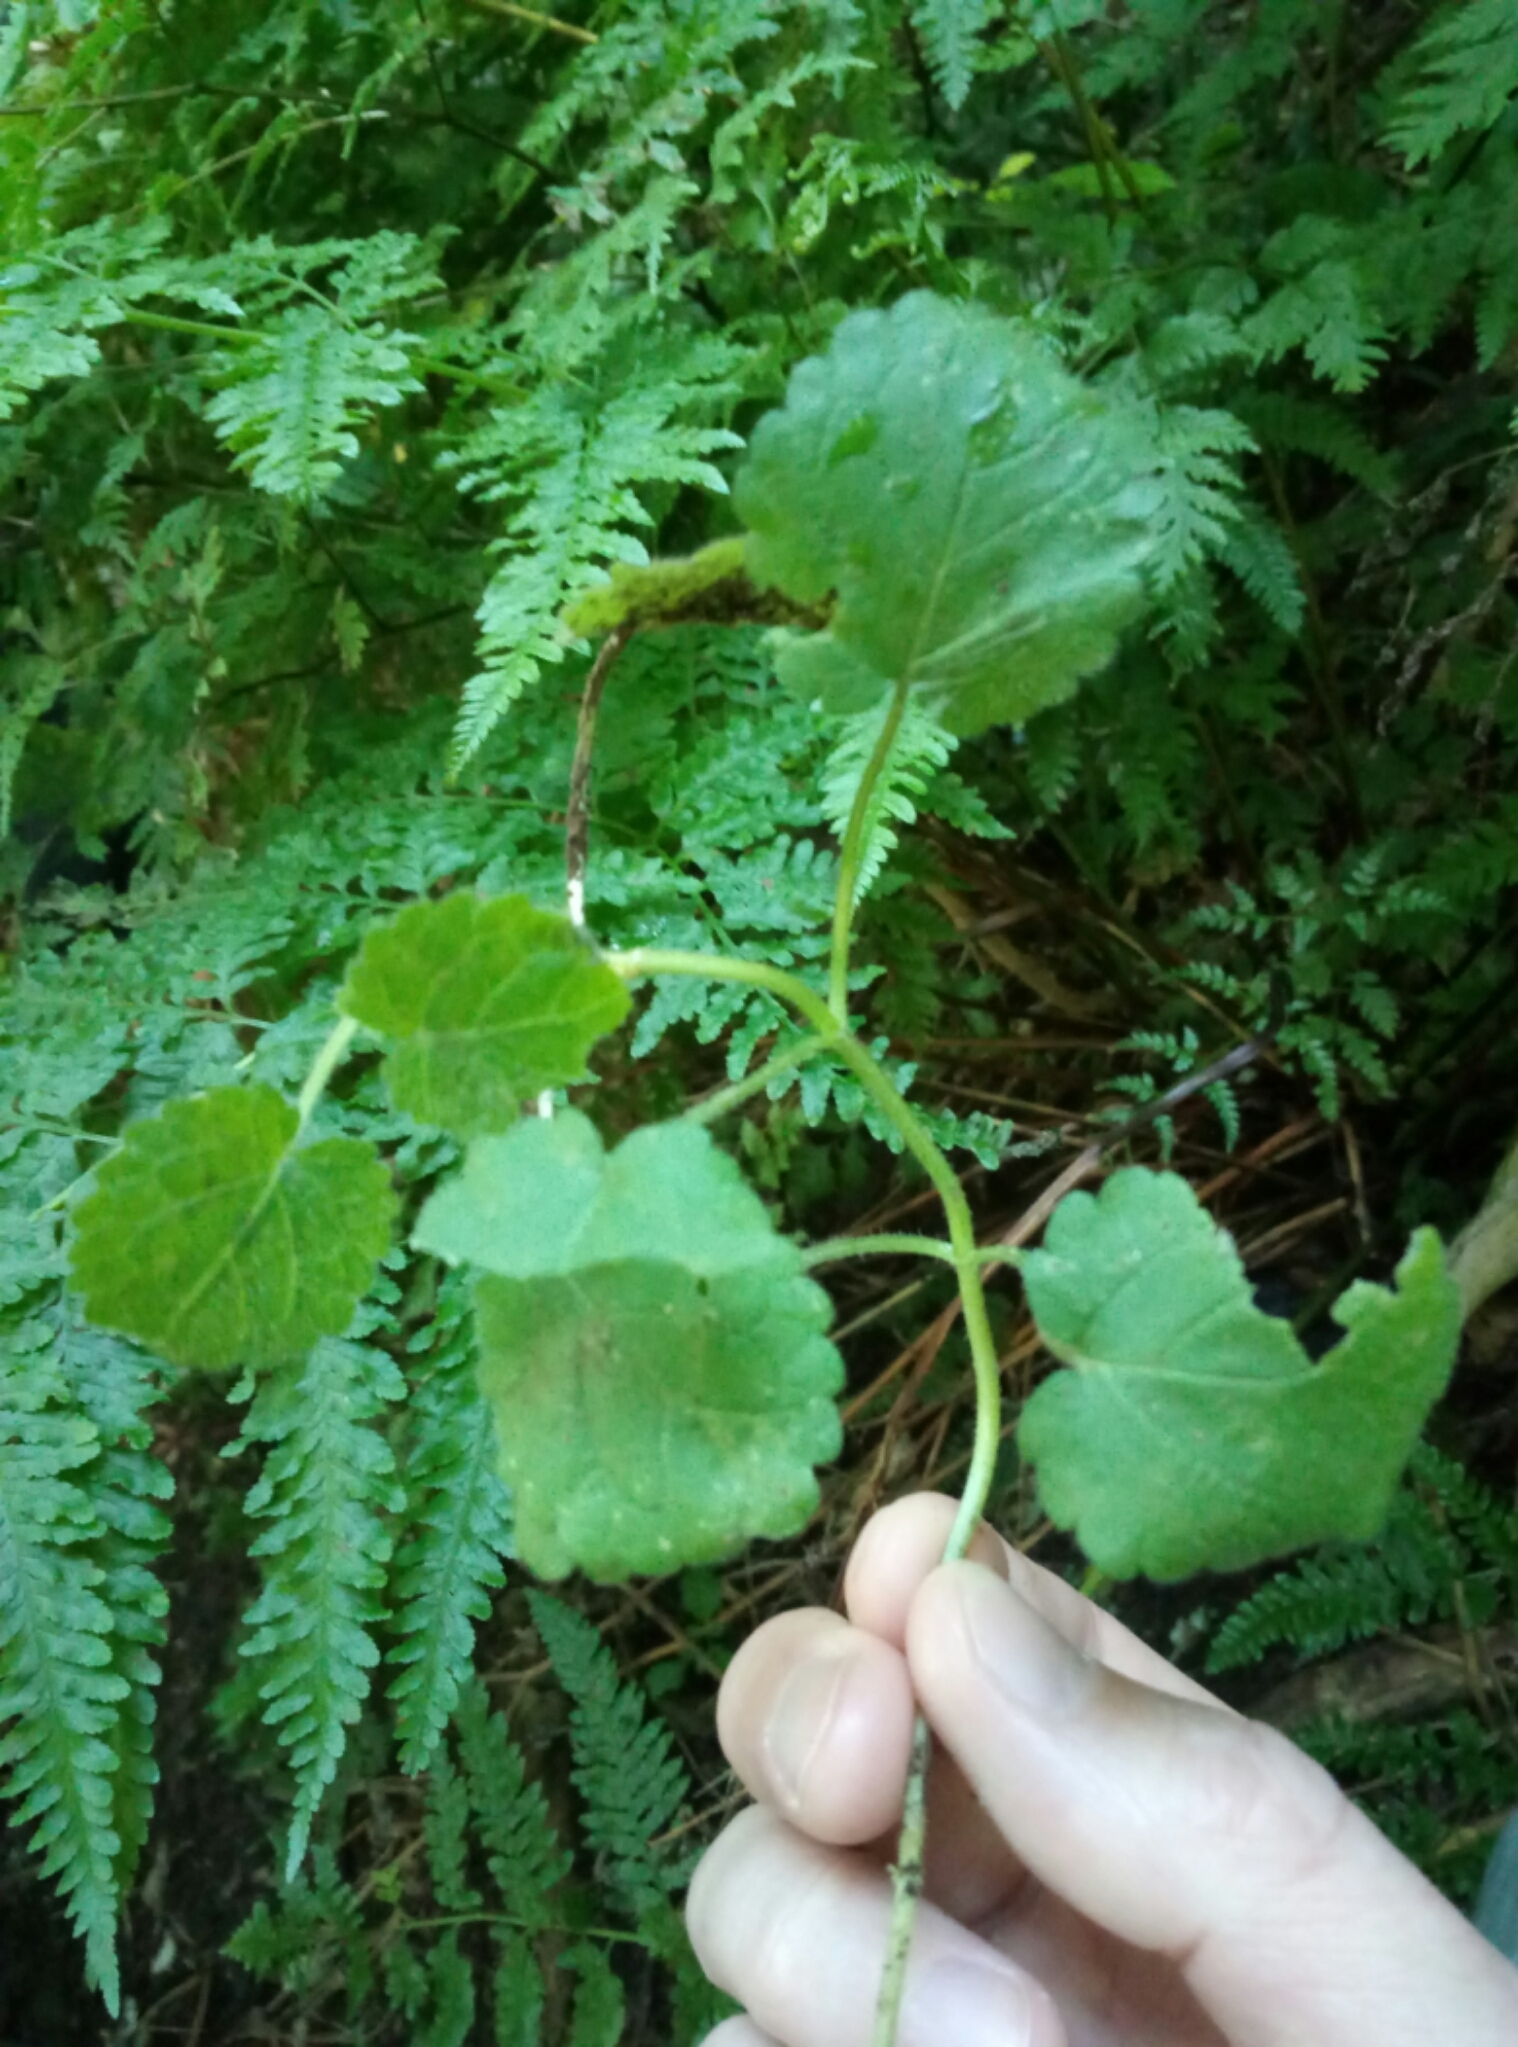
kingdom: Plantae
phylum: Tracheophyta
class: Magnoliopsida
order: Lamiales
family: Lamiaceae
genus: Stachys
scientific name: Stachys sylvatica
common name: Hedge woundwort
